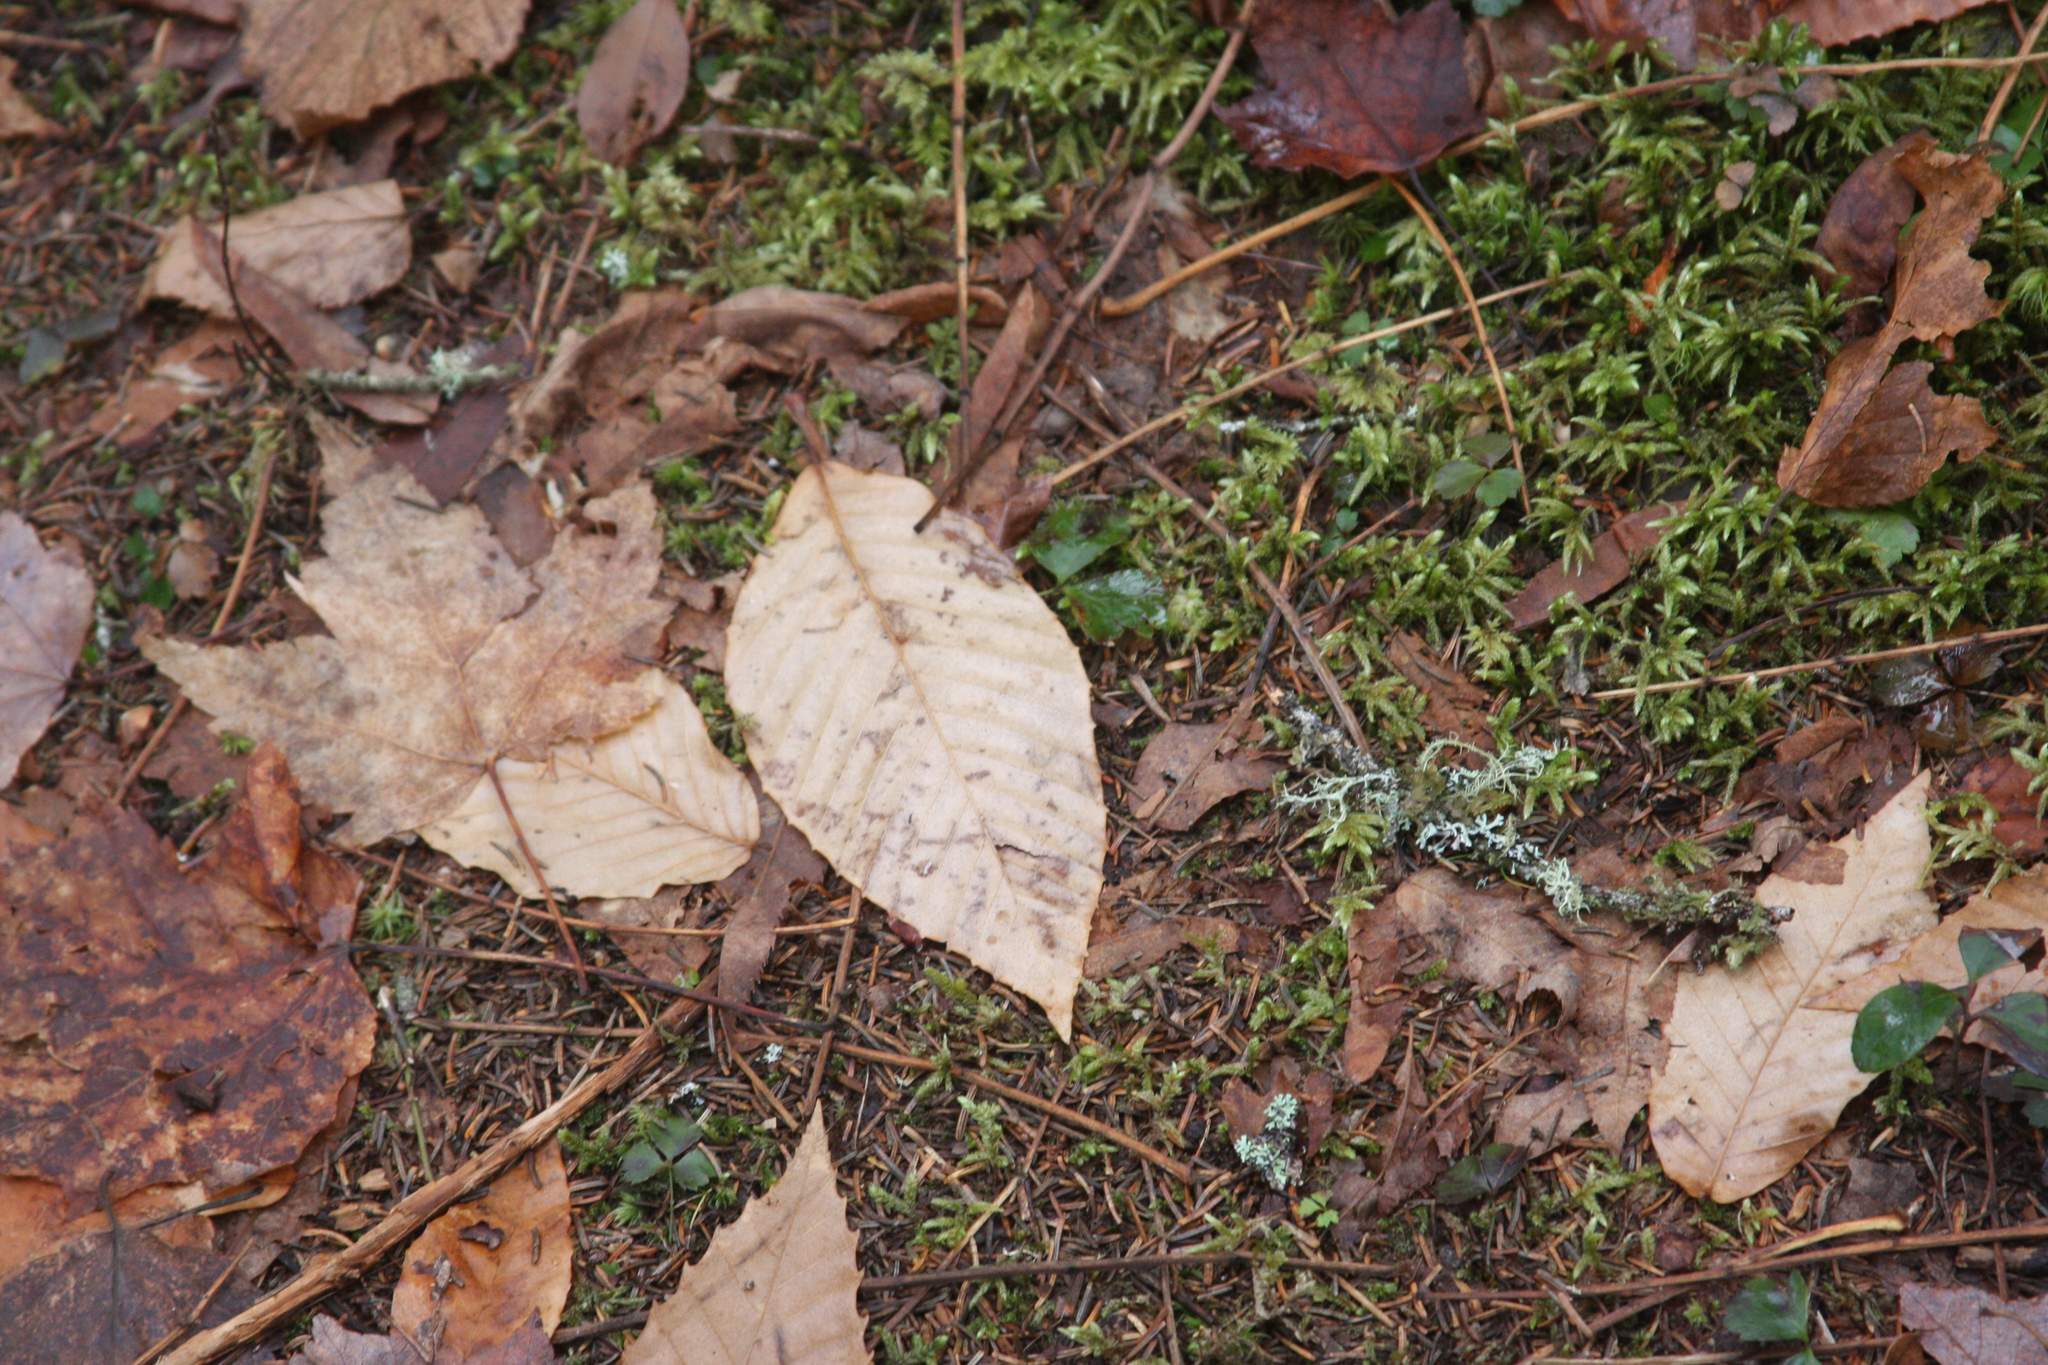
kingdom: Plantae
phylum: Tracheophyta
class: Magnoliopsida
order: Fagales
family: Fagaceae
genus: Fagus
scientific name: Fagus grandifolia
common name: American beech
